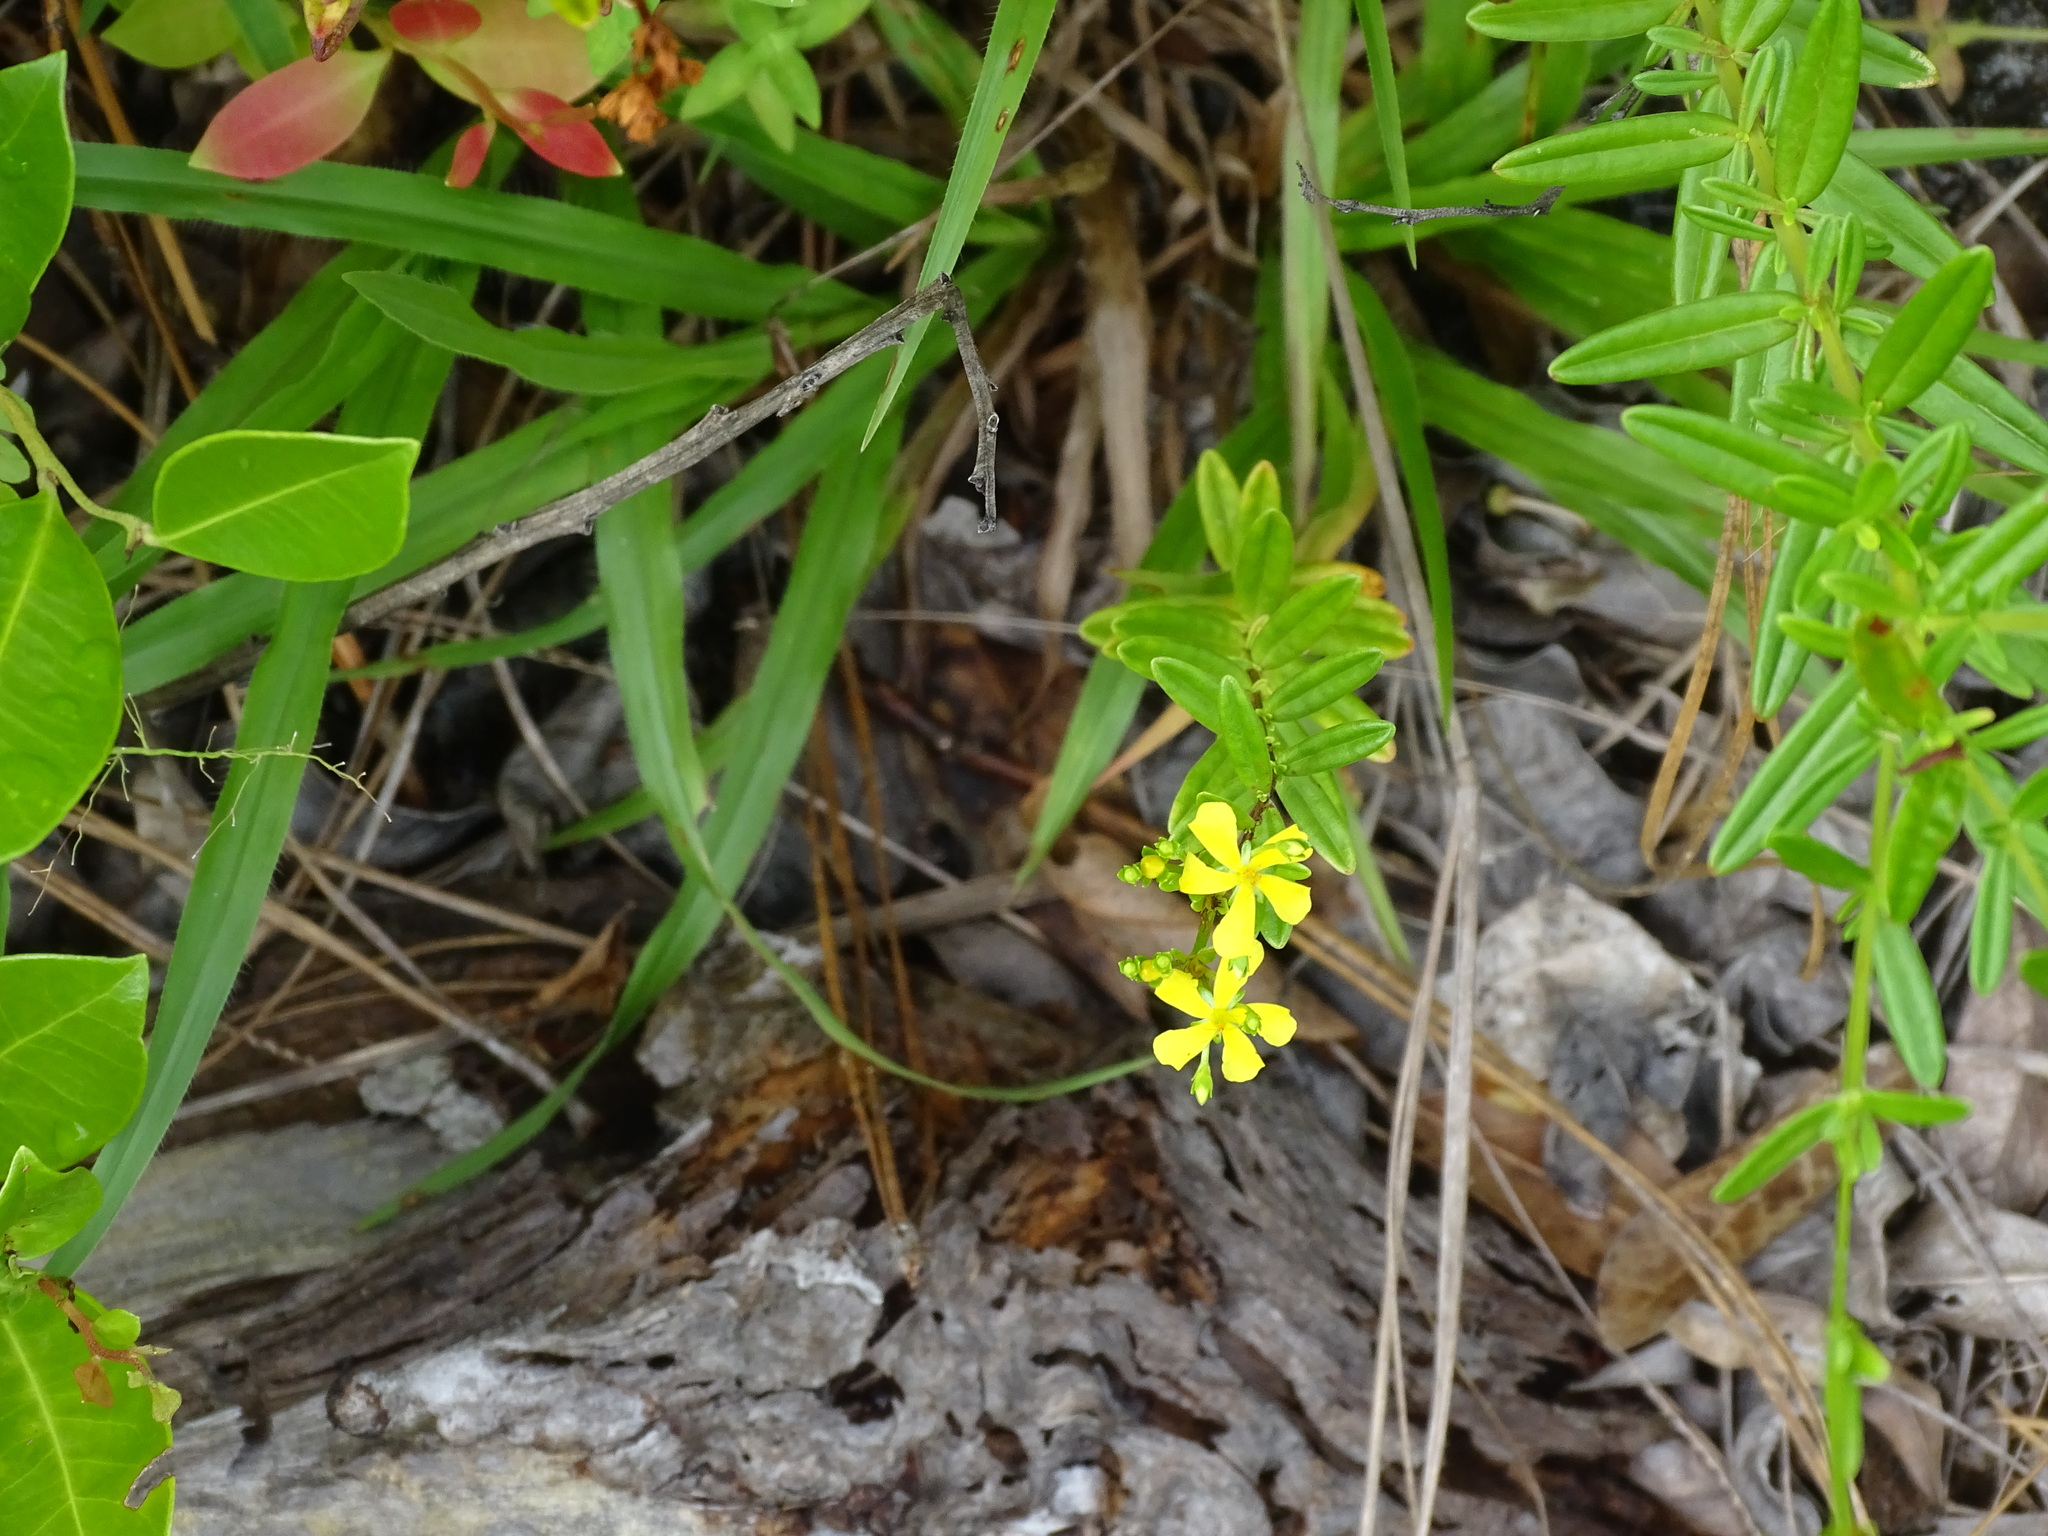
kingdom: Plantae
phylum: Tracheophyta
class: Magnoliopsida
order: Malpighiales
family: Hypericaceae
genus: Hypericum
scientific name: Hypericum cistifolium
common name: Round-pod st. john's-wort
